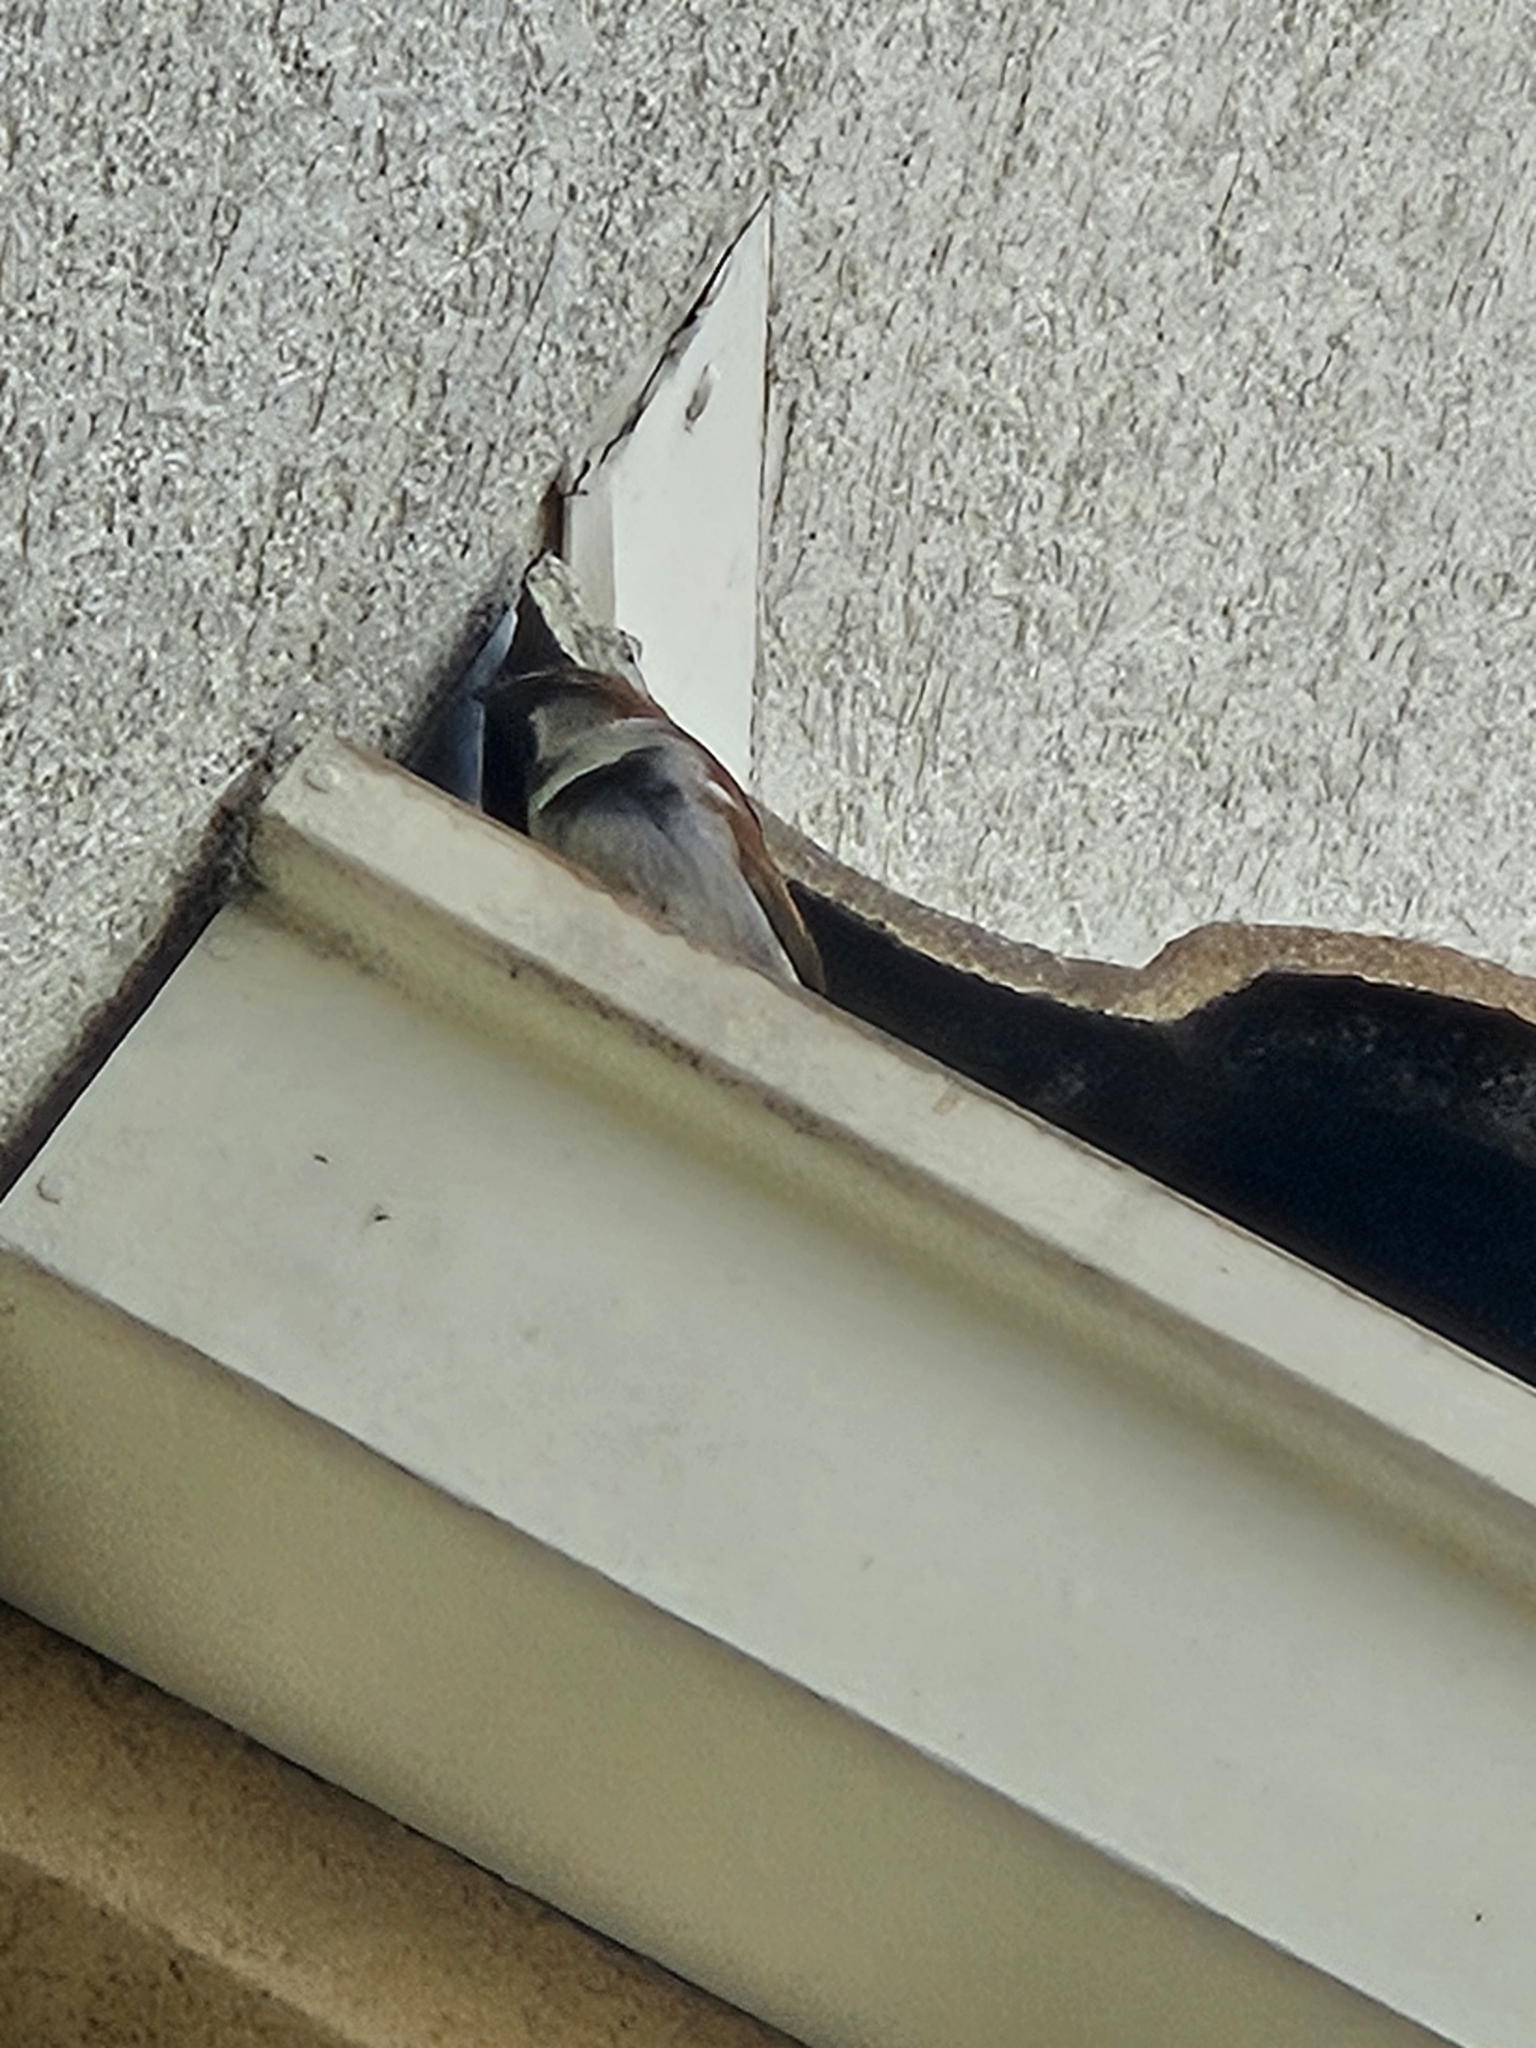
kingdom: Animalia
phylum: Chordata
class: Aves
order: Passeriformes
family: Passeridae
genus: Passer
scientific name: Passer domesticus
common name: House sparrow
